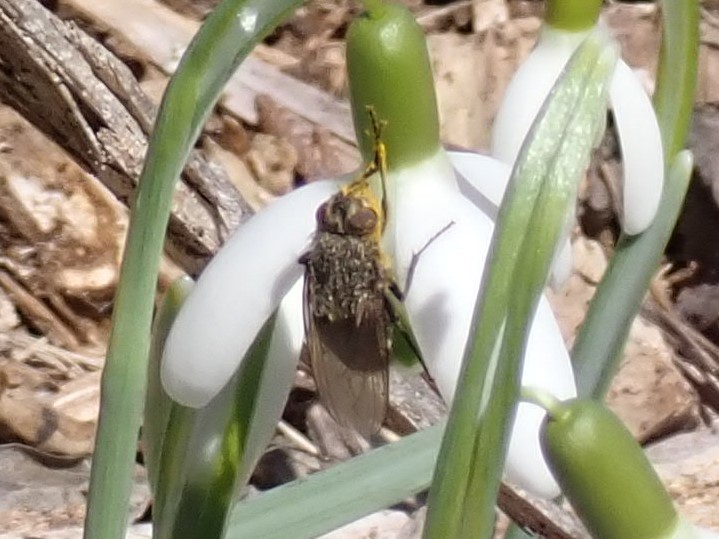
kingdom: Animalia
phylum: Arthropoda
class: Insecta
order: Diptera
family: Polleniidae
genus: Pollenia
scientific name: Pollenia
